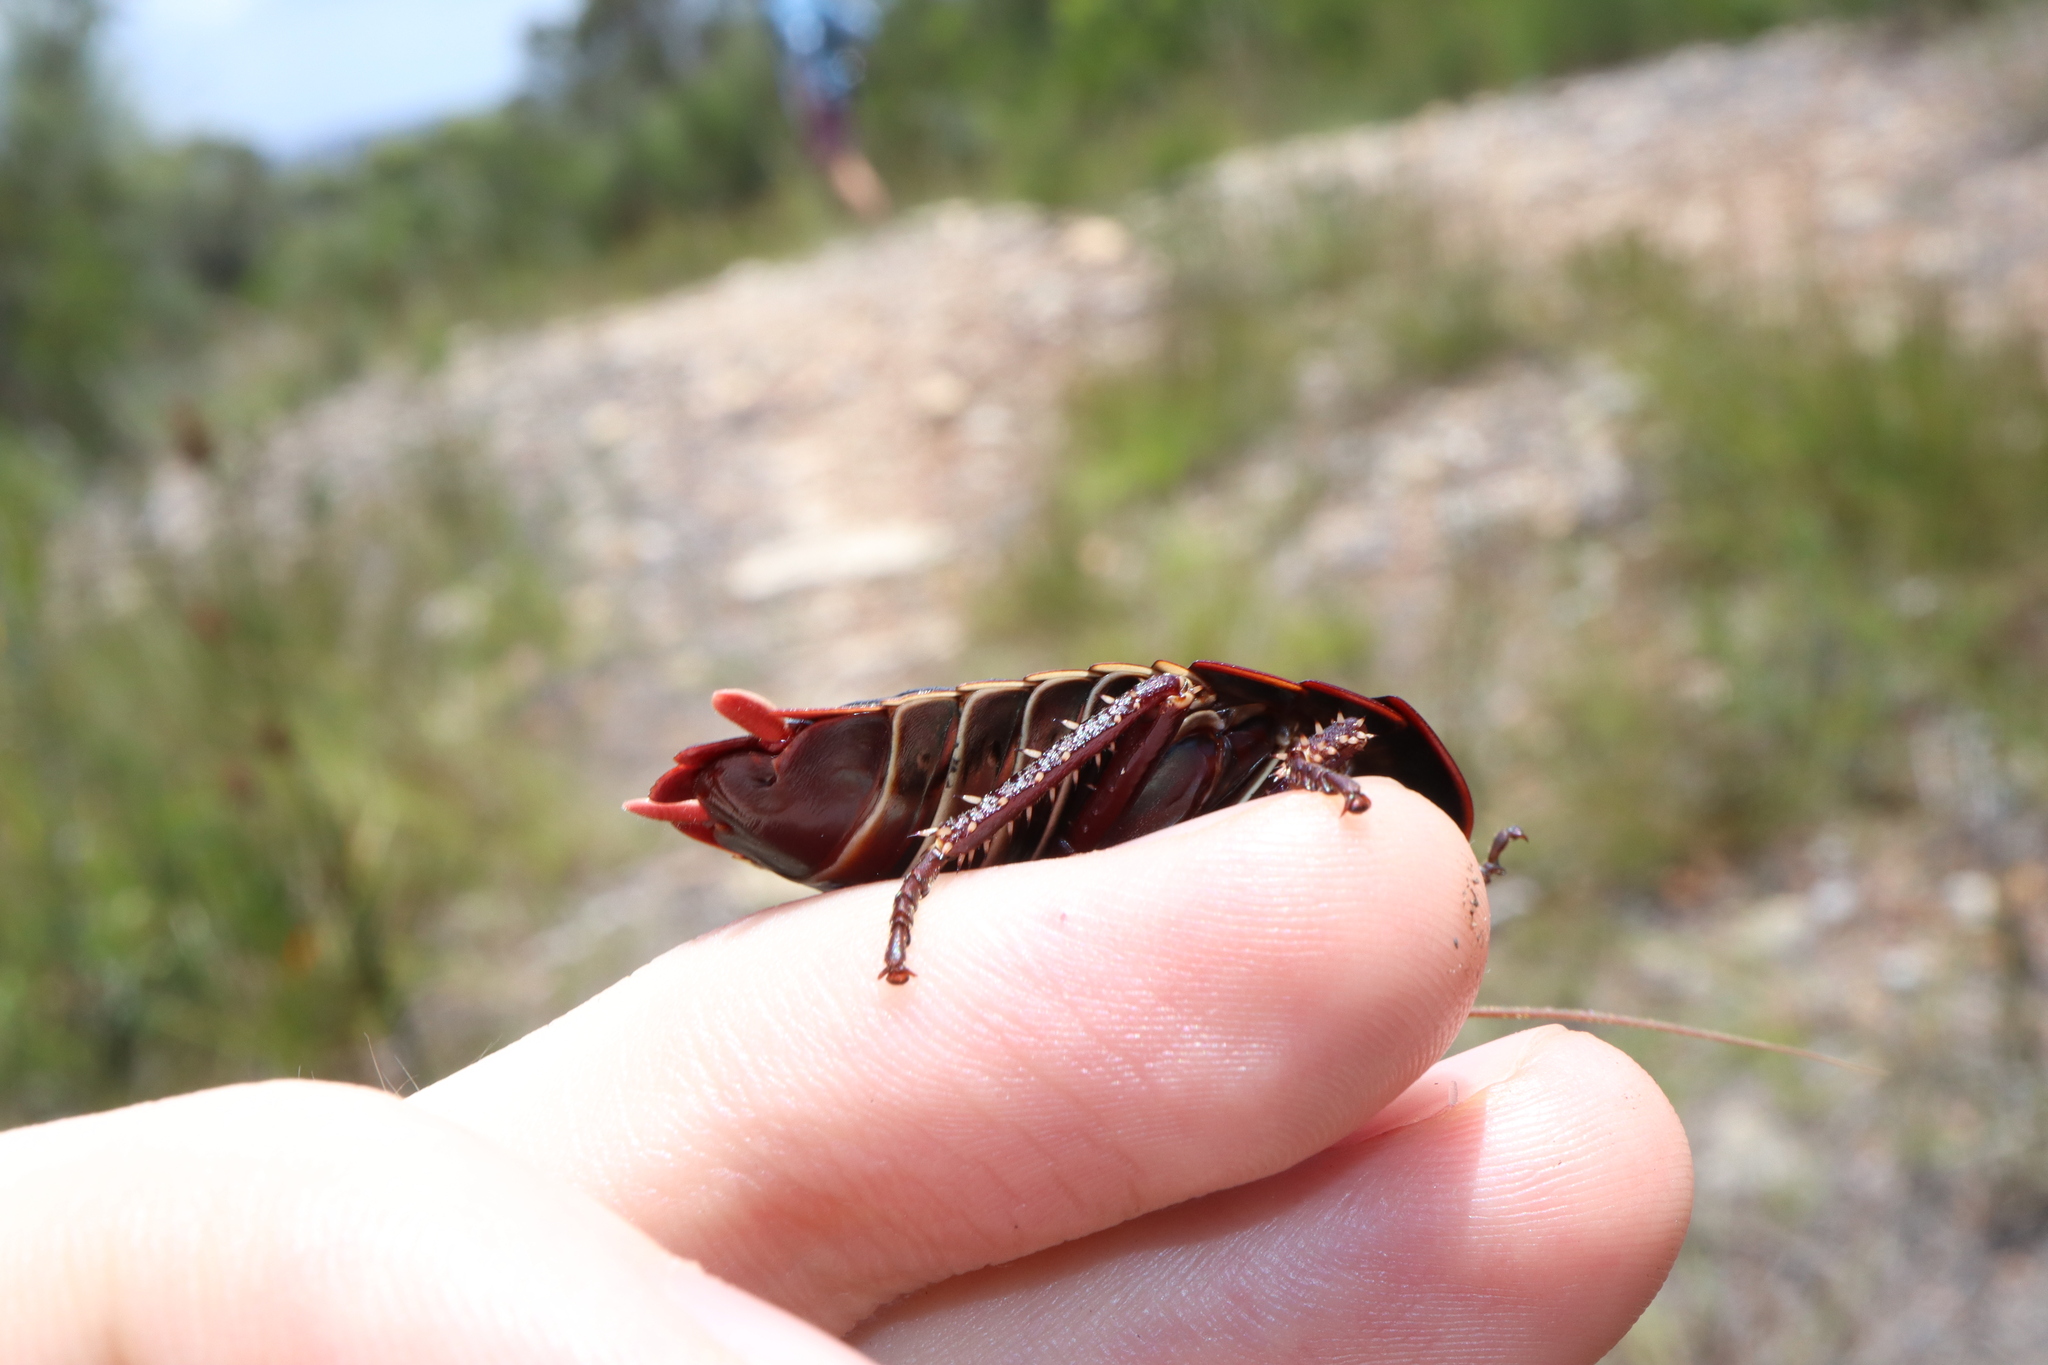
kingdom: Animalia
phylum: Arthropoda
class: Insecta
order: Blattodea
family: Blattidae
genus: Polyzosteria
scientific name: Polyzosteria limbata
